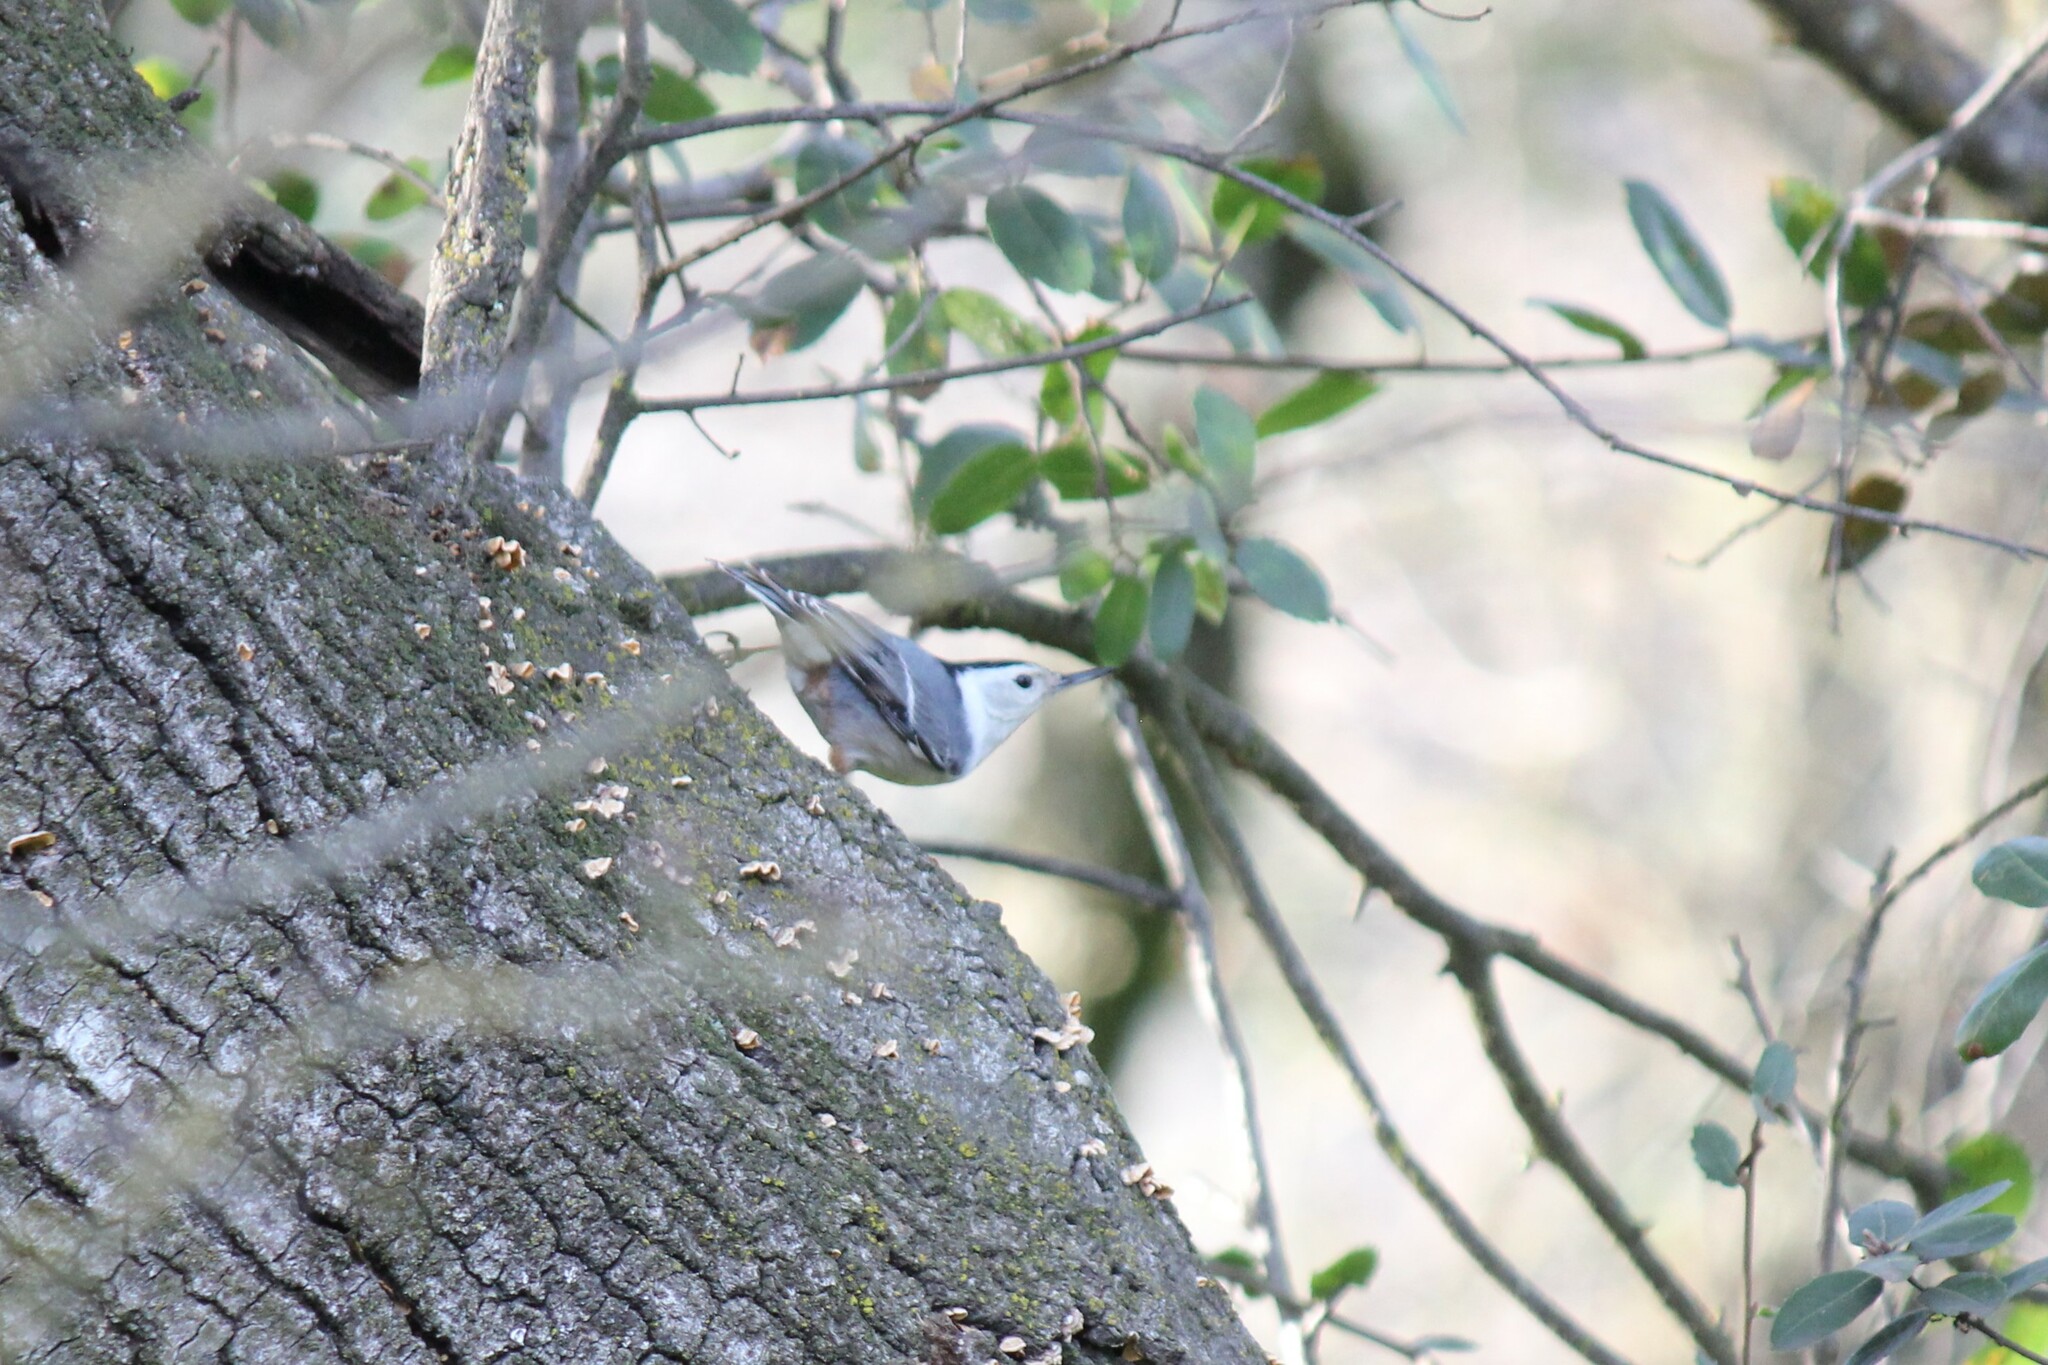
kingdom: Animalia
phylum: Chordata
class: Aves
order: Passeriformes
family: Sittidae
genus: Sitta
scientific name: Sitta carolinensis
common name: White-breasted nuthatch
